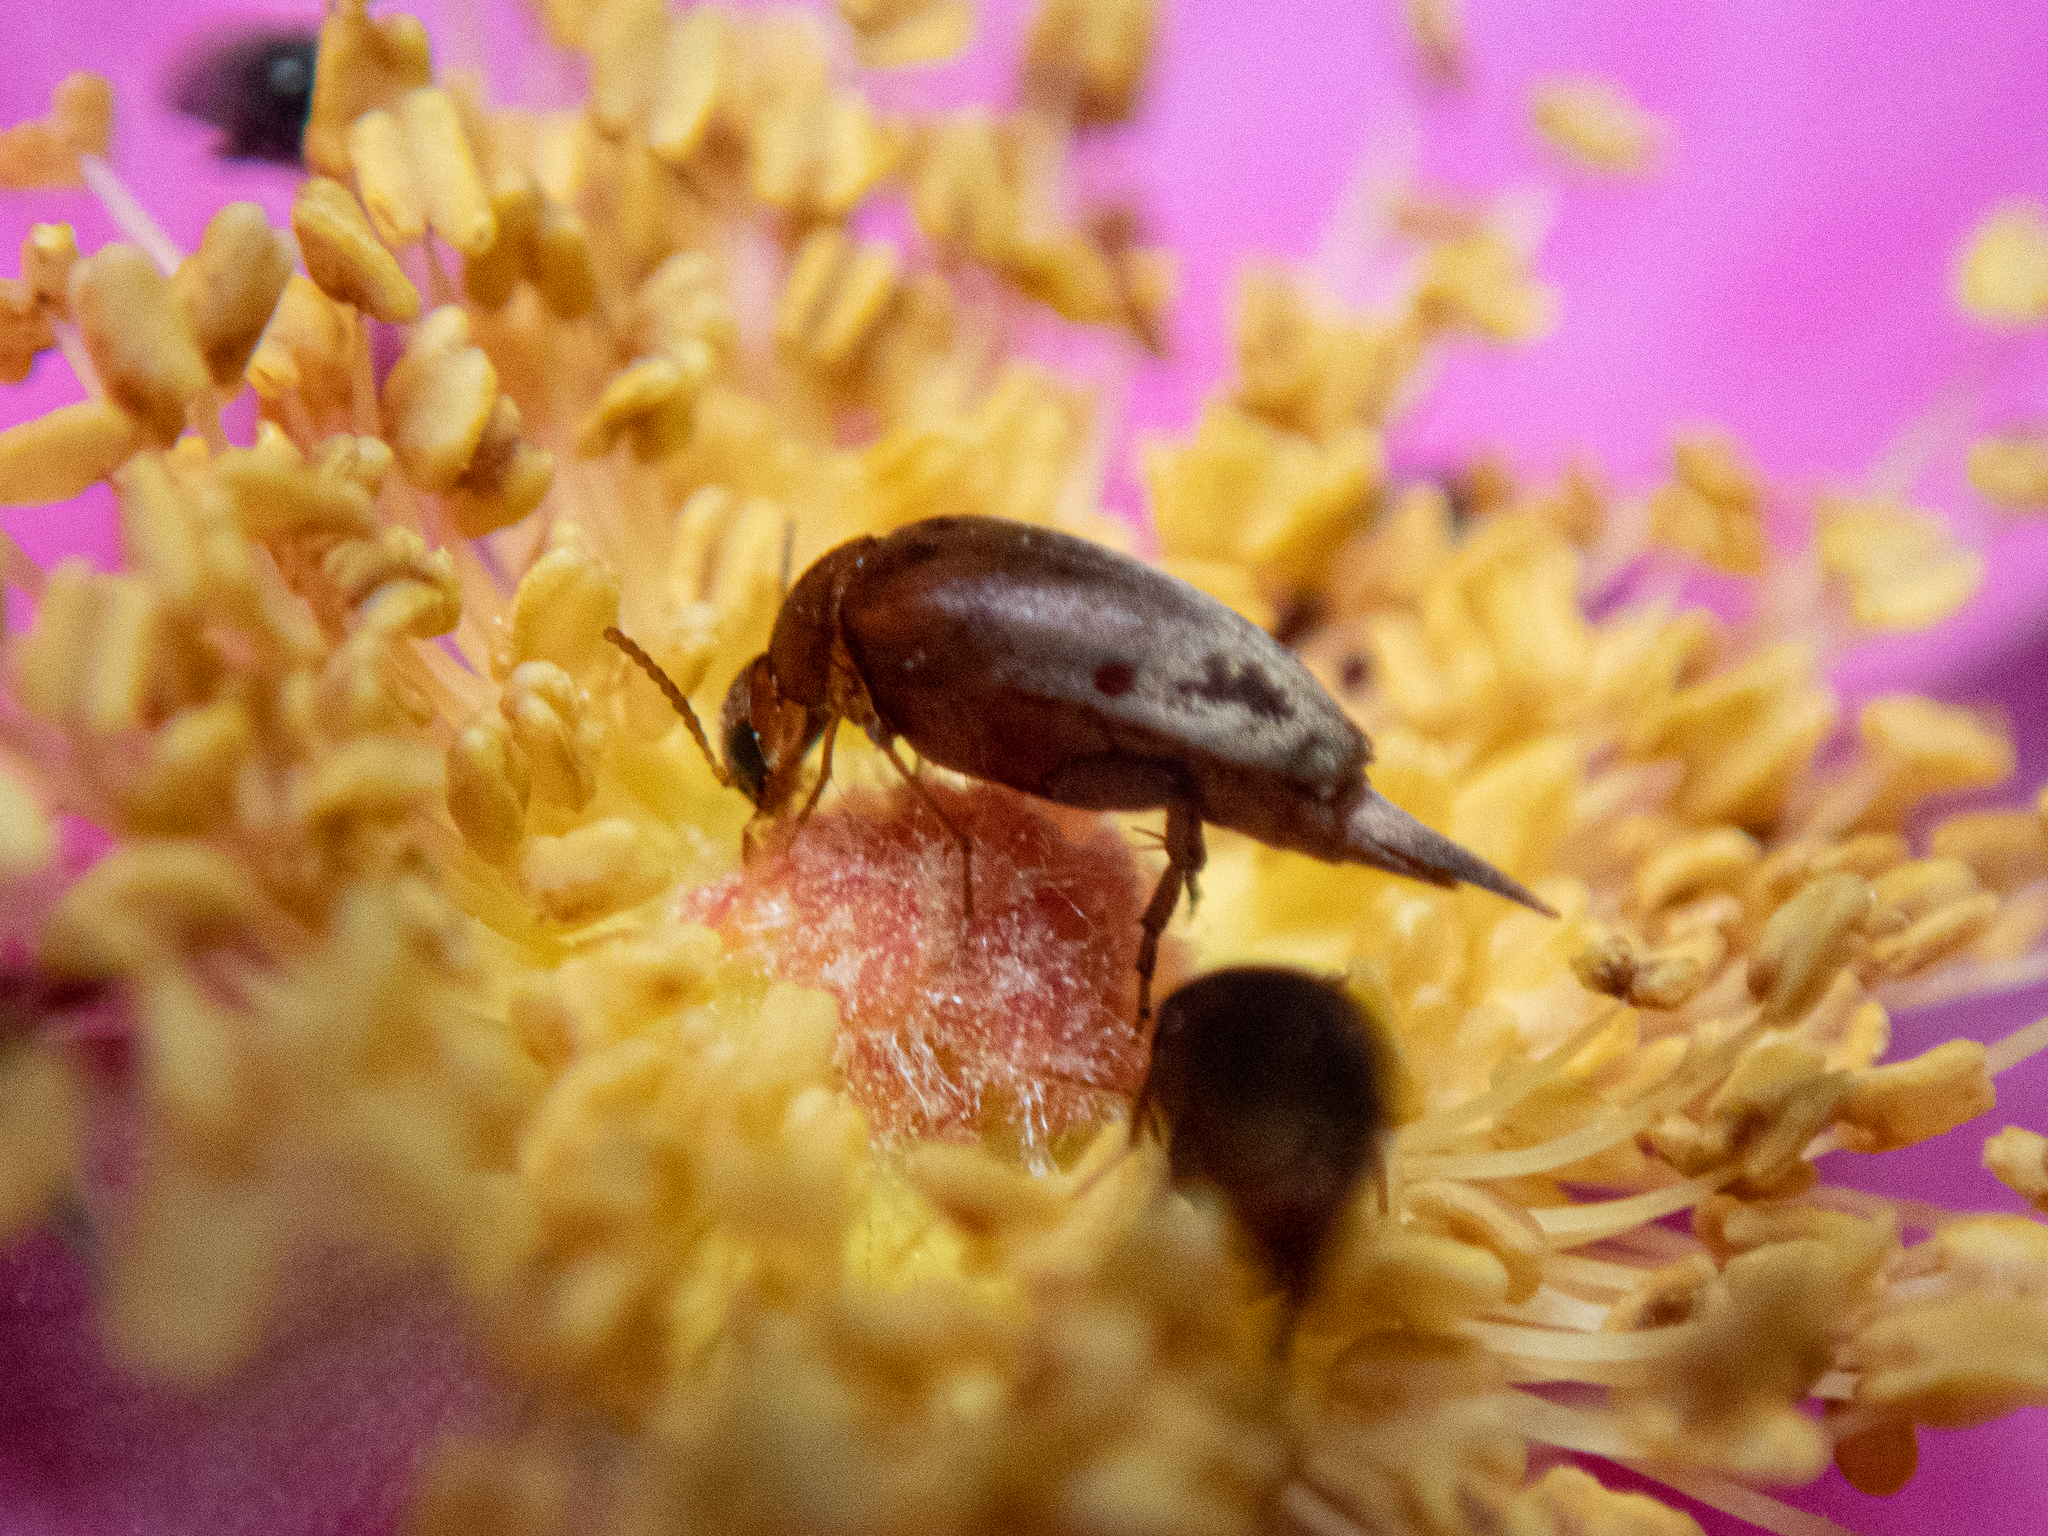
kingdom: Animalia
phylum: Arthropoda
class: Insecta
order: Coleoptera
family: Mordellidae
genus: Mordellistena
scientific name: Mordellistena ornata
